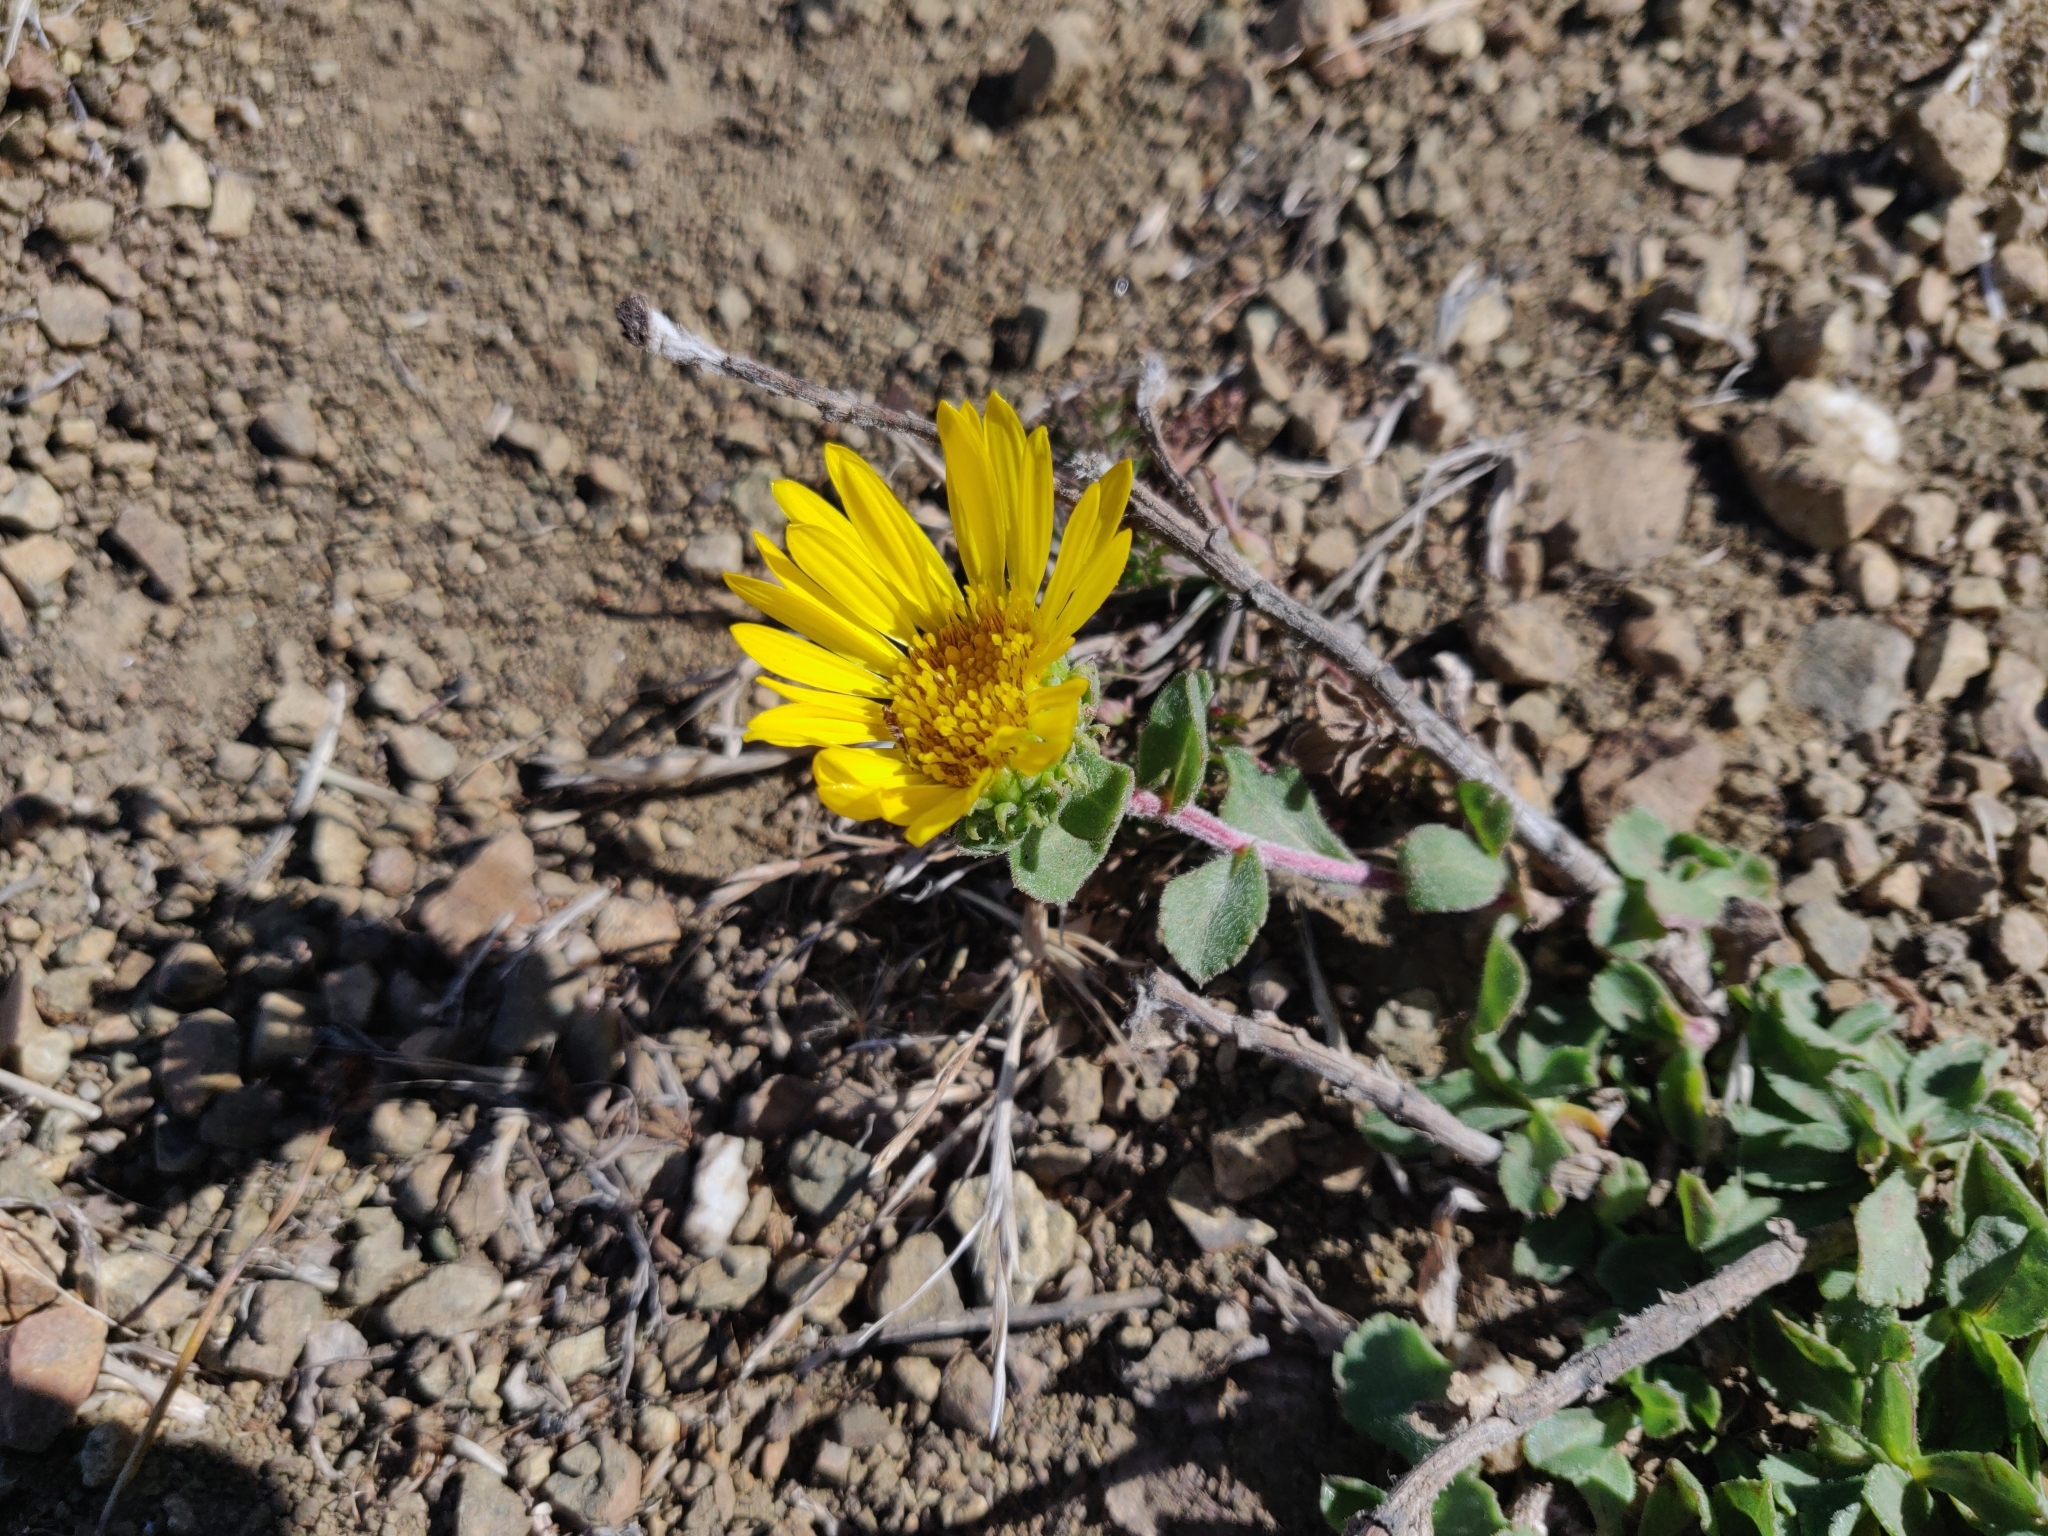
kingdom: Plantae
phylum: Tracheophyta
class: Magnoliopsida
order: Asterales
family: Asteraceae
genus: Grindelia
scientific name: Grindelia hirsutula
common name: Hairy gumweed
